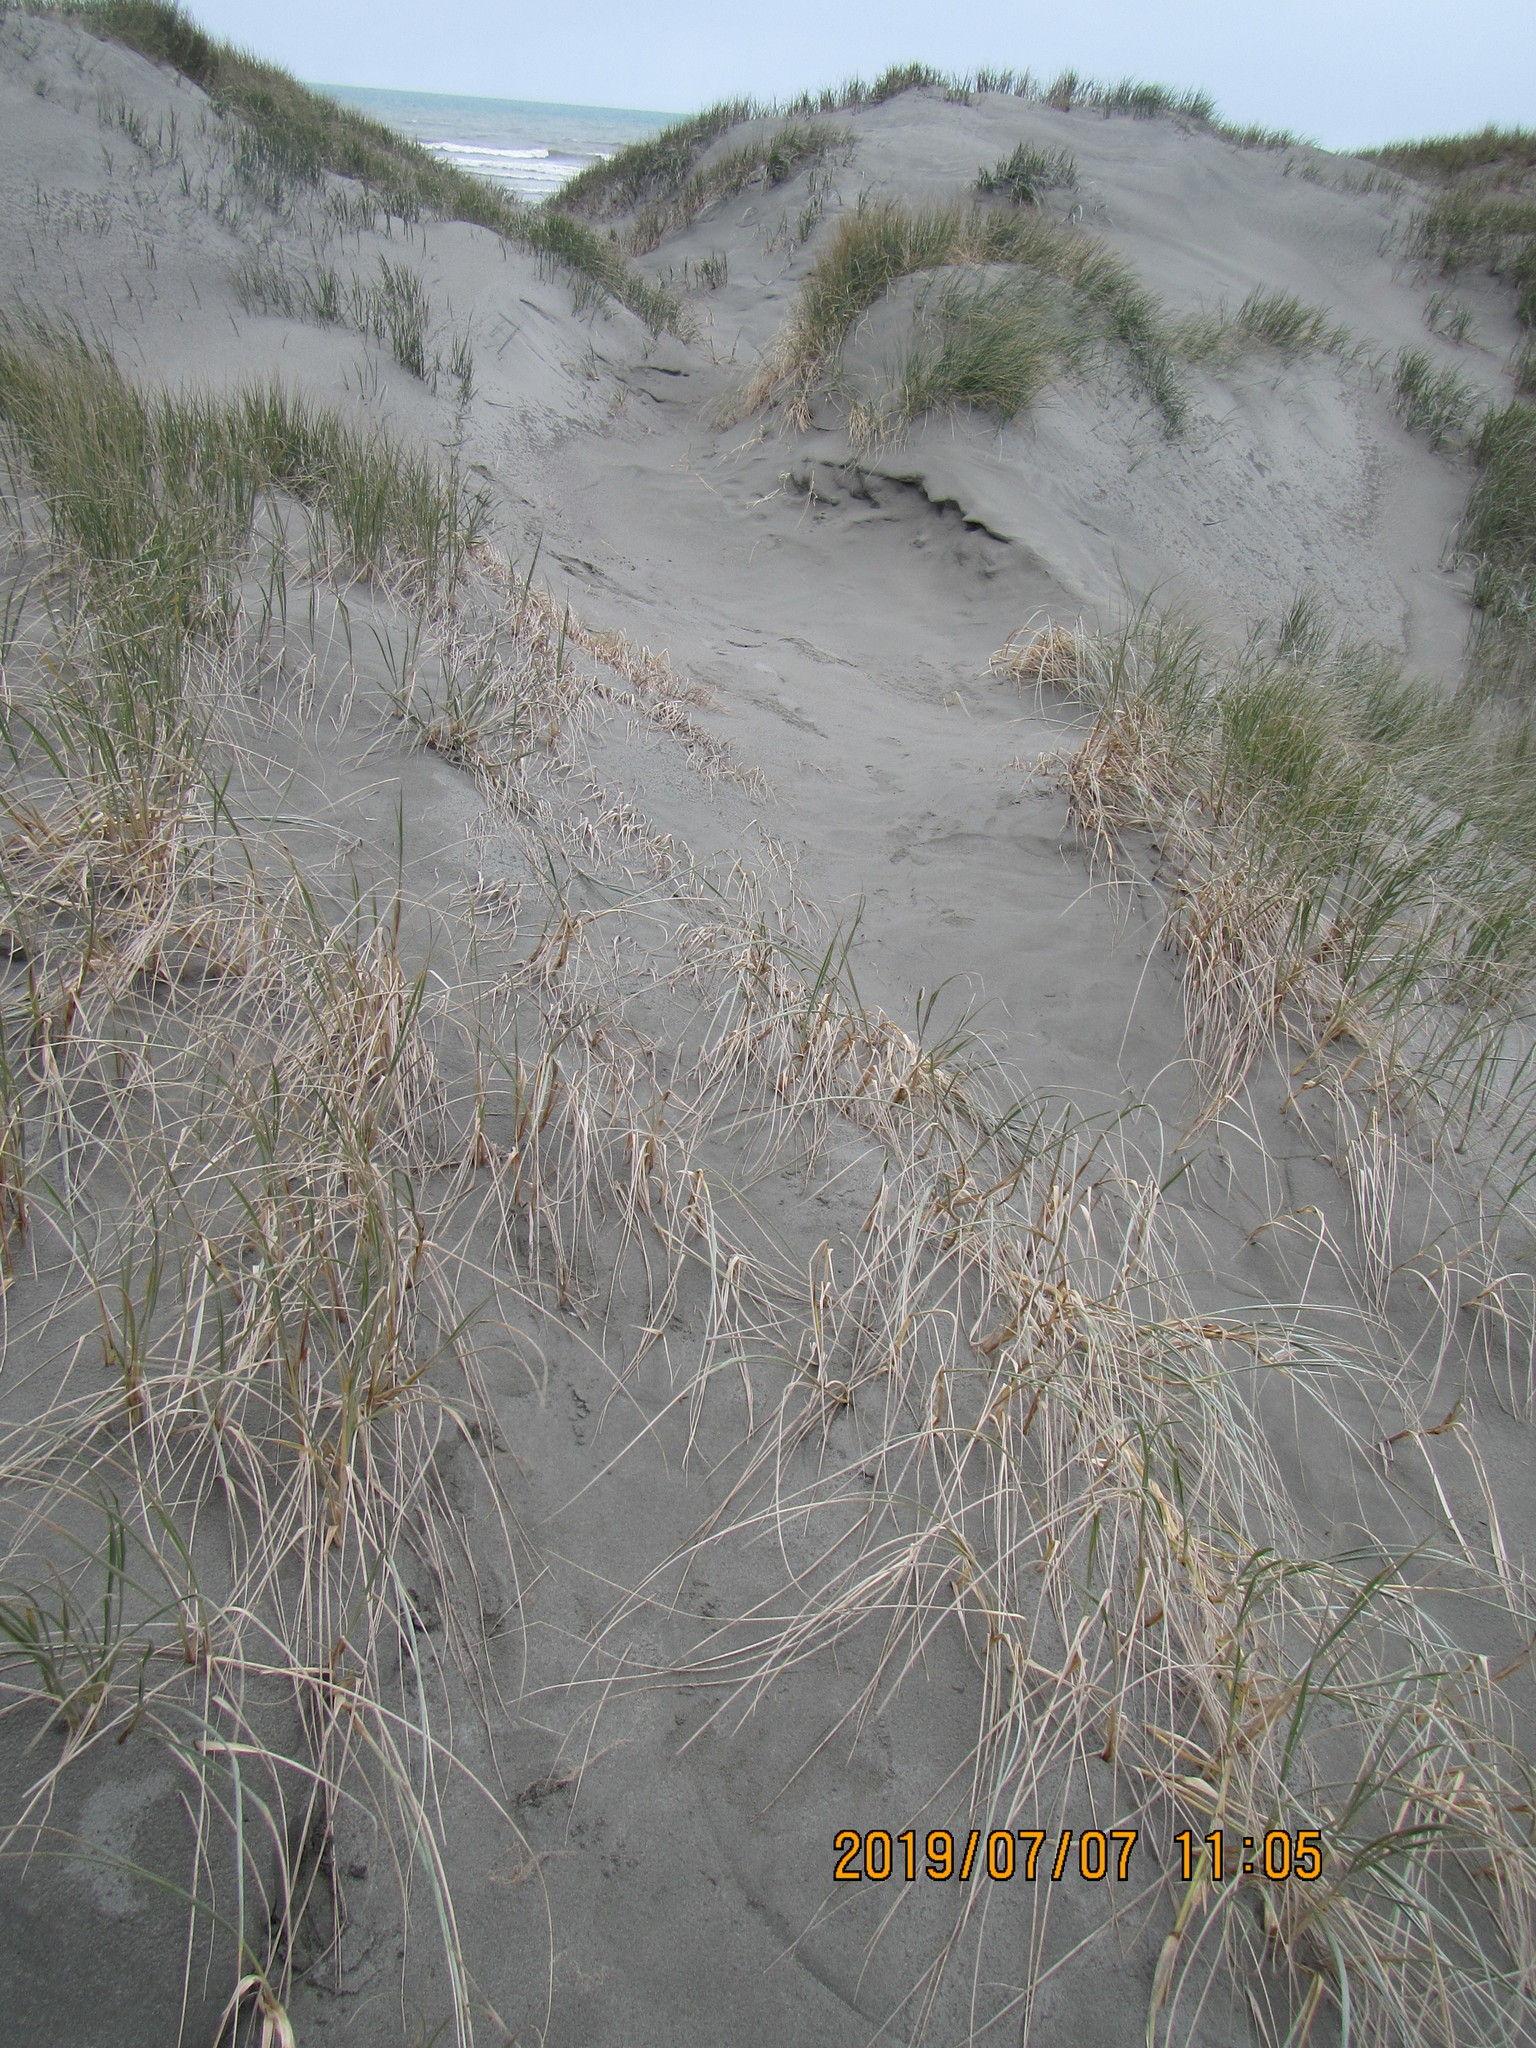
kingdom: Plantae
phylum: Tracheophyta
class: Liliopsida
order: Poales
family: Poaceae
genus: Spinifex
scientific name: Spinifex sericeus
